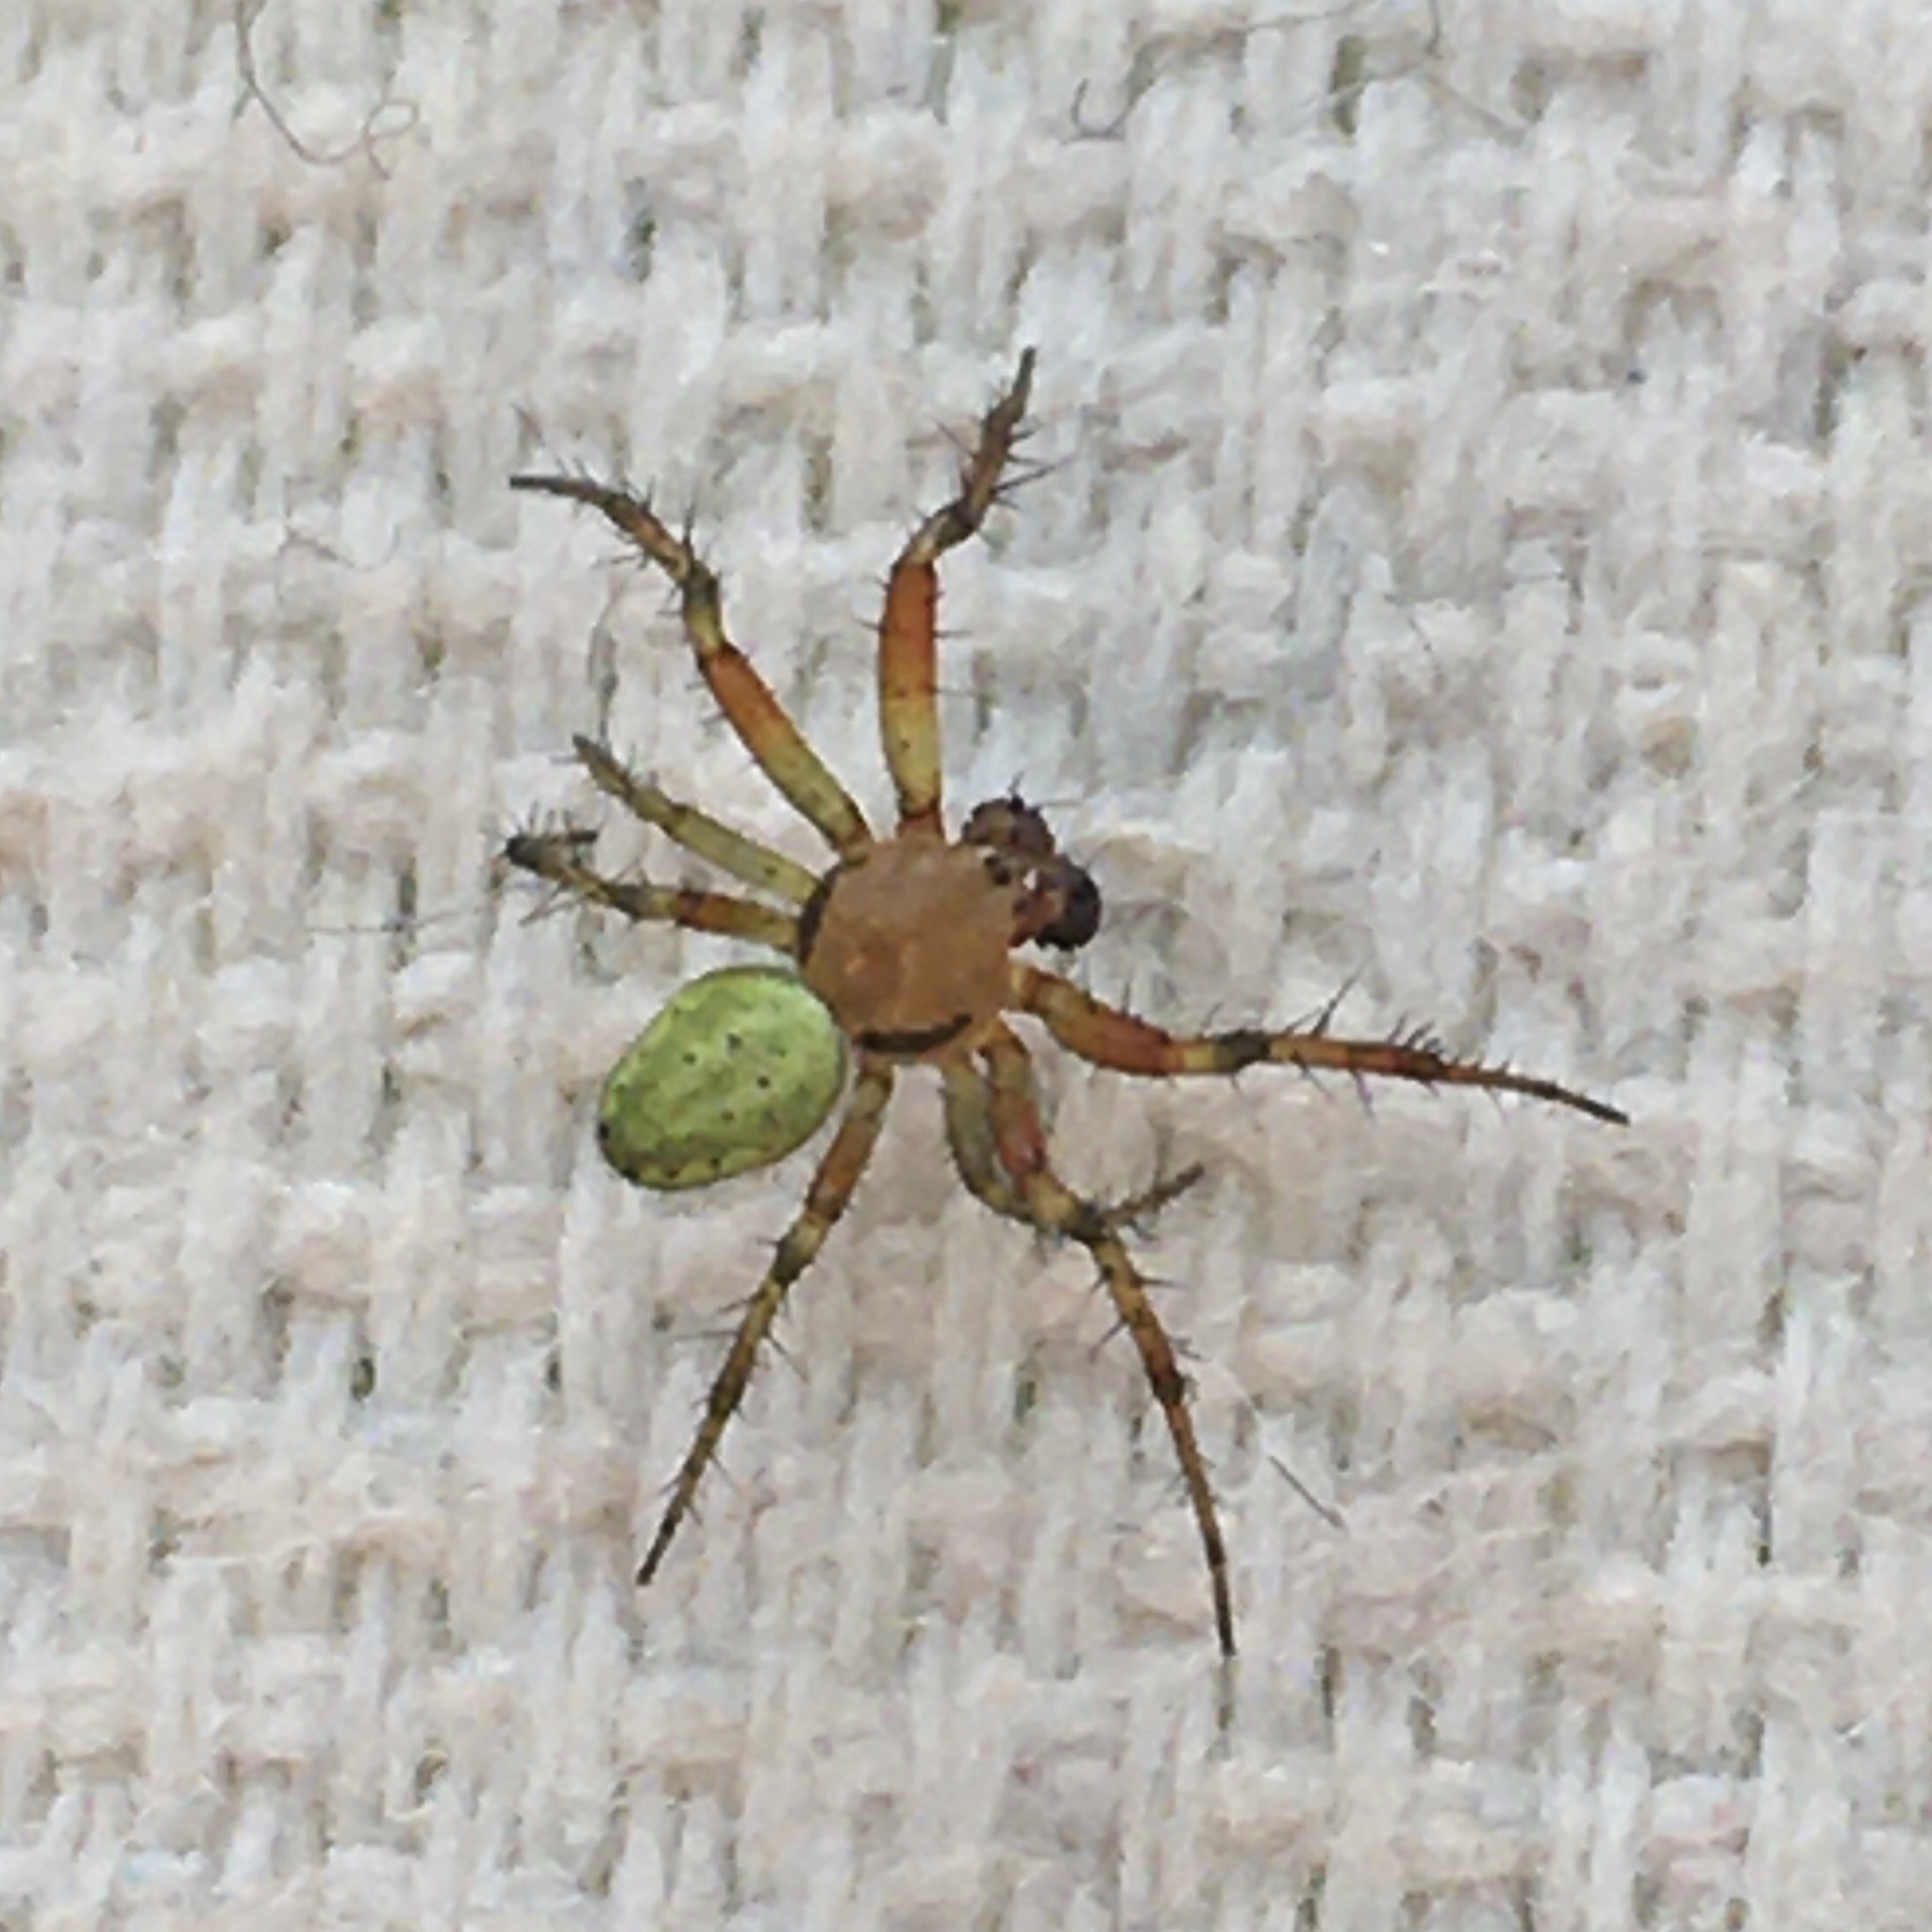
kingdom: Animalia
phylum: Arthropoda
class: Arachnida
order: Araneae
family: Araneidae
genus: Araniella
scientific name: Araniella
